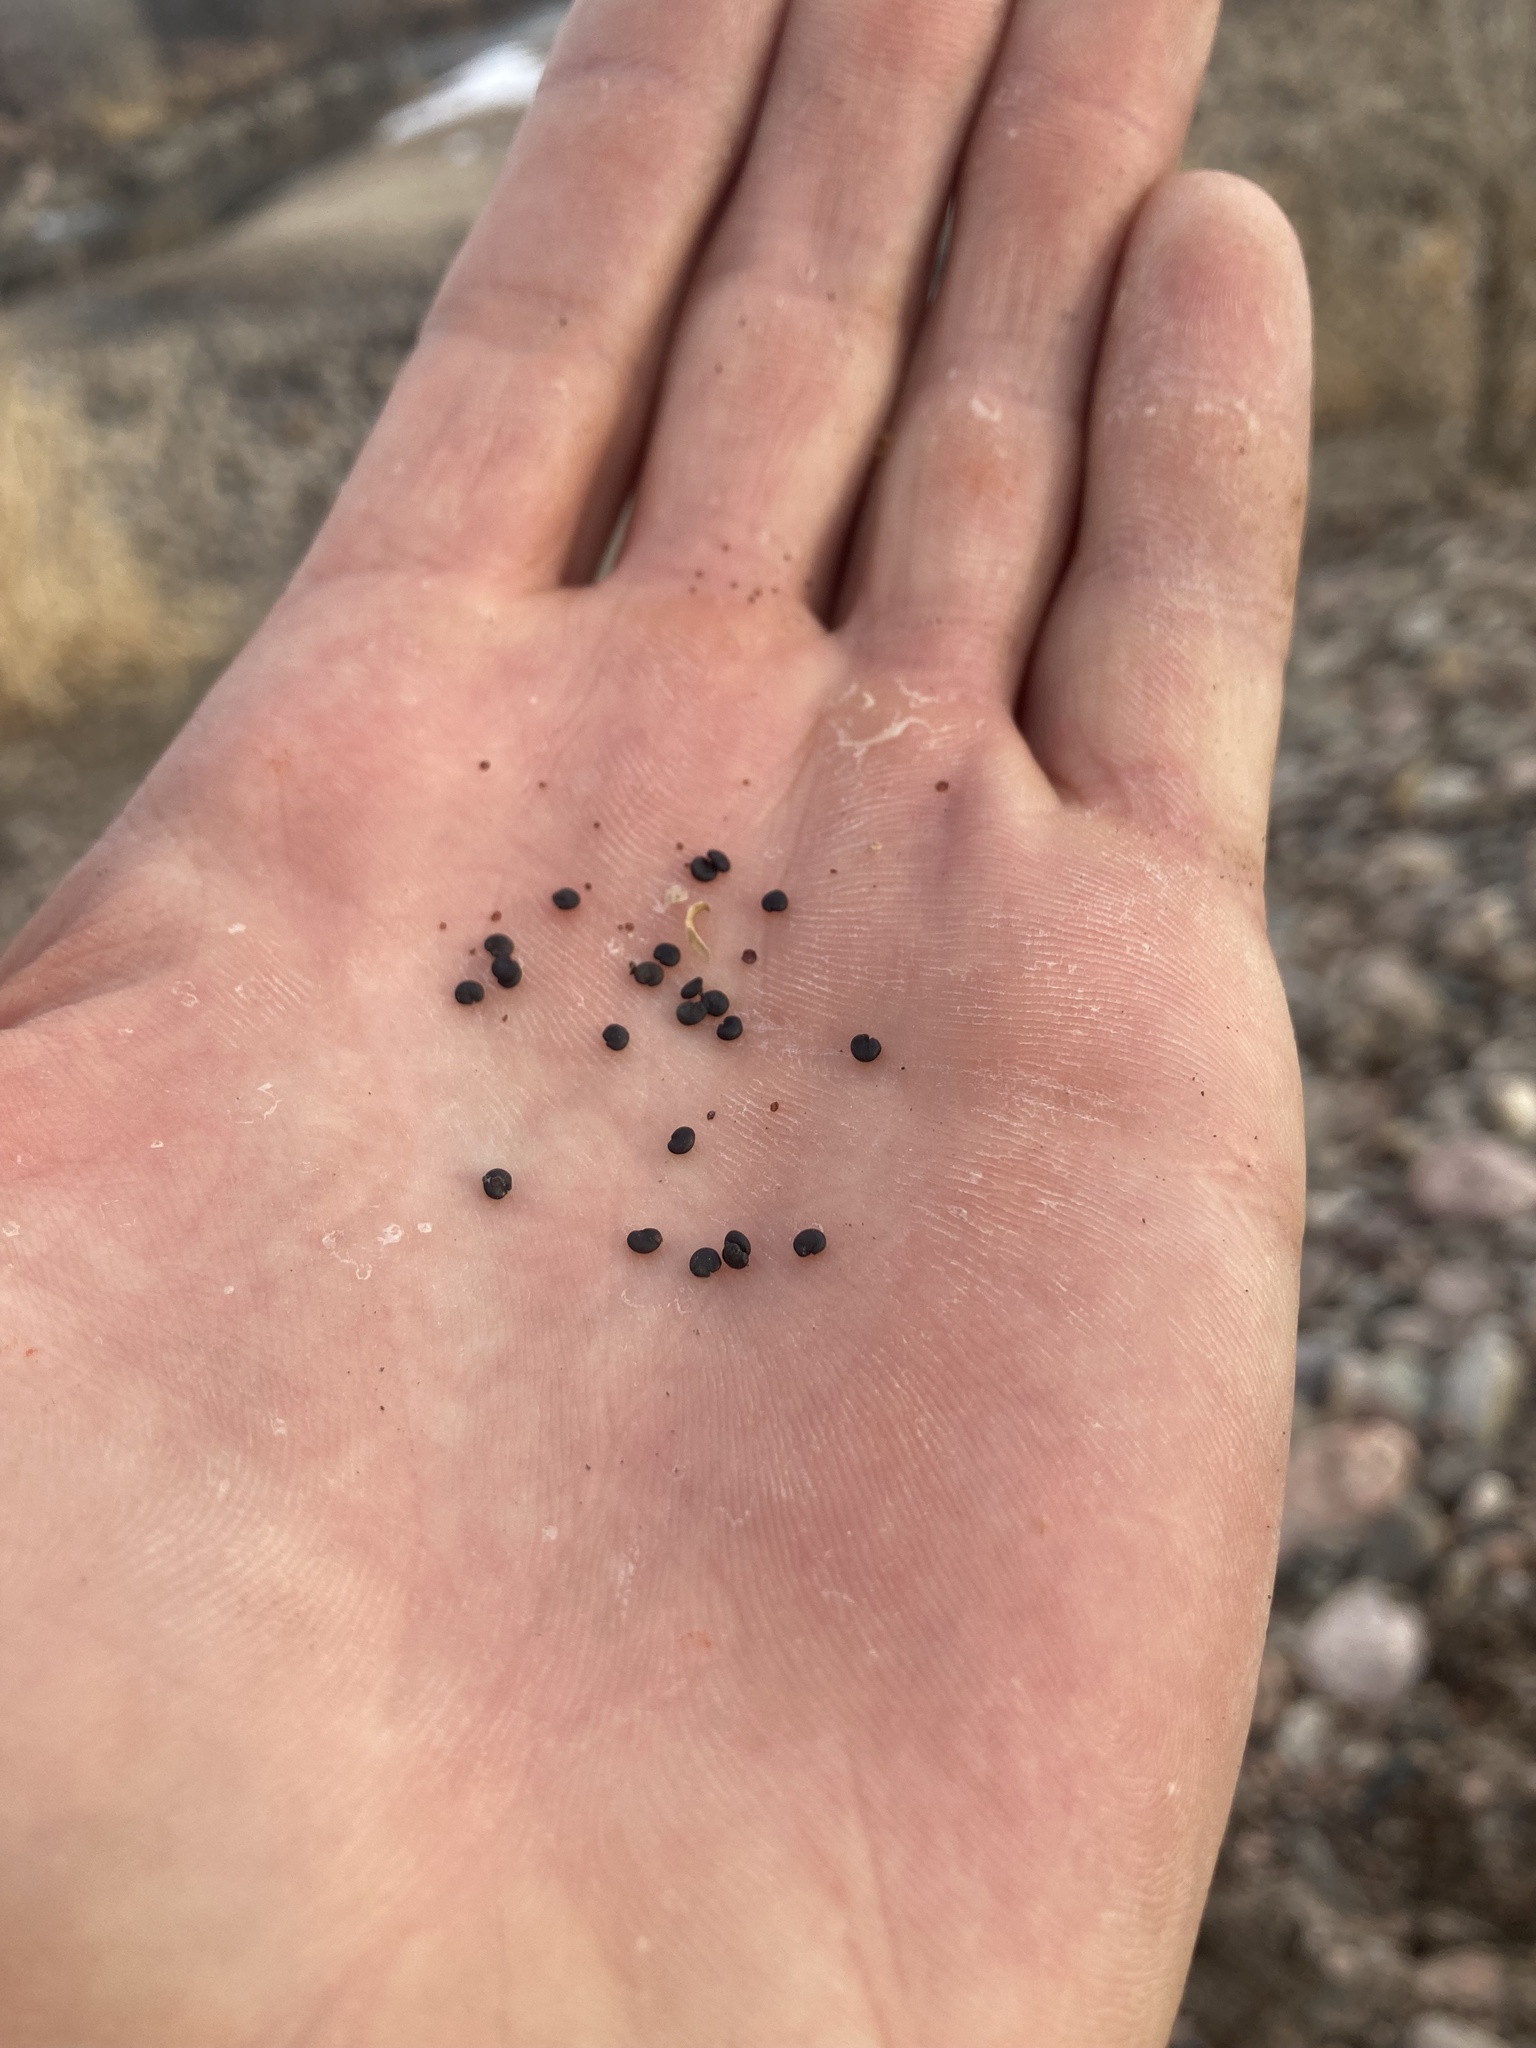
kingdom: Plantae
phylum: Tracheophyta
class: Magnoliopsida
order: Caryophyllales
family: Caryophyllaceae
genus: Saponaria
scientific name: Saponaria officinalis
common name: Soapwort
